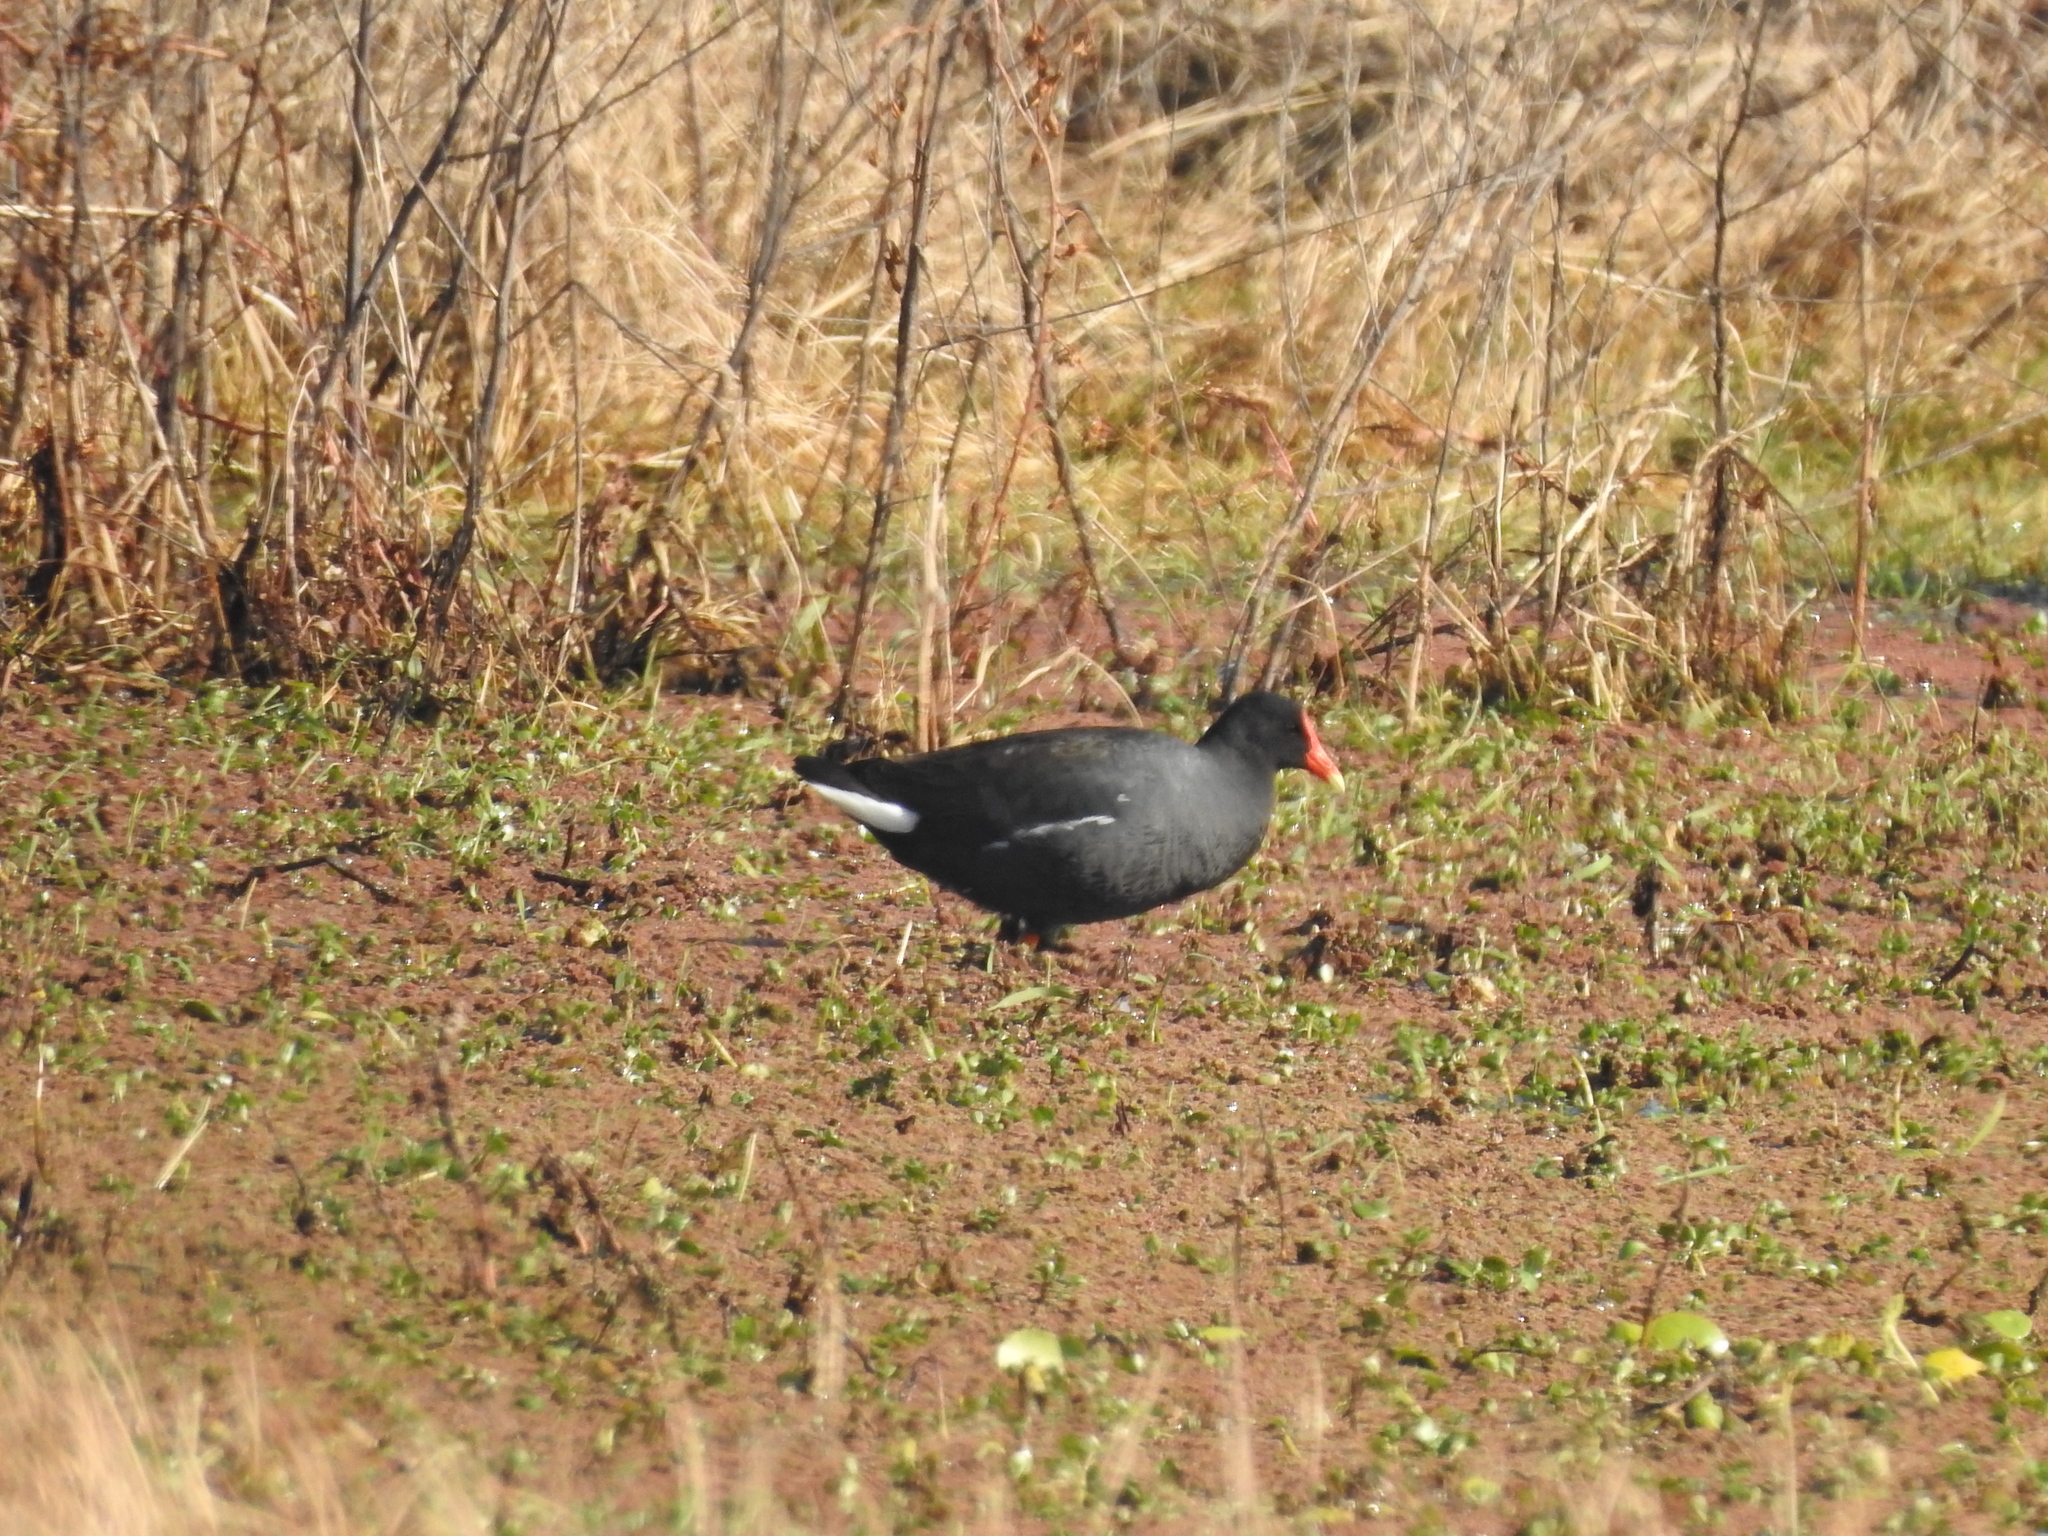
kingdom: Animalia
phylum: Chordata
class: Aves
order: Gruiformes
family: Rallidae
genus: Gallinula
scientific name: Gallinula chloropus
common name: Common moorhen
